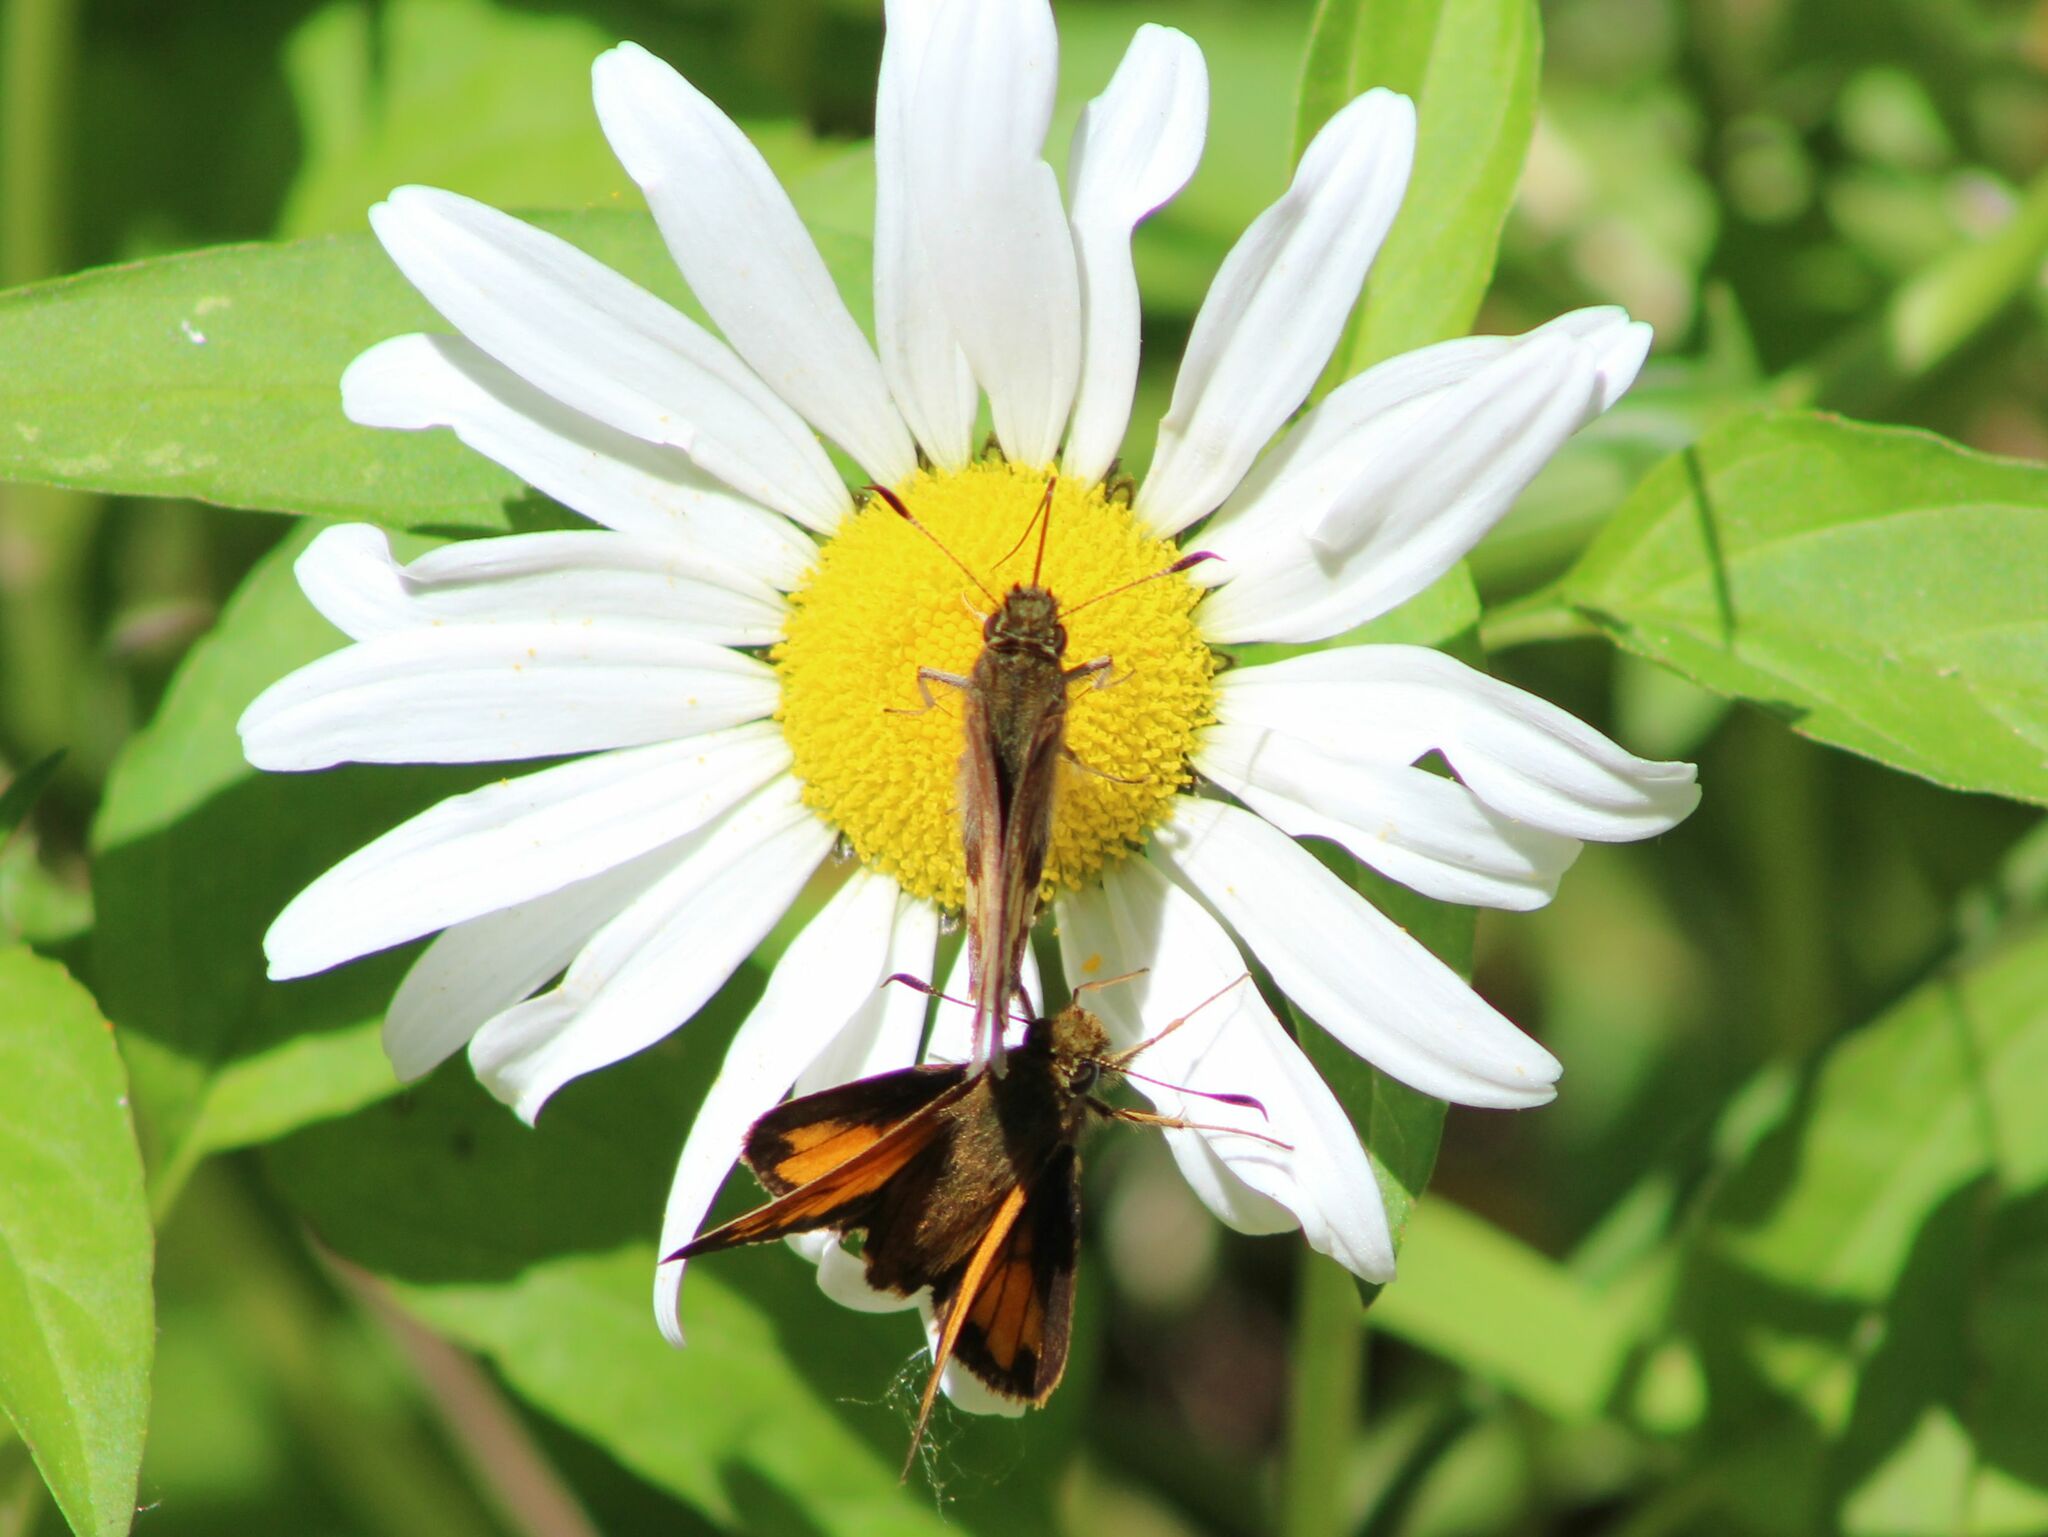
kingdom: Animalia
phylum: Arthropoda
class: Insecta
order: Lepidoptera
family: Hesperiidae
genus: Lon
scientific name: Lon hobomok
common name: Hobomok skipper
